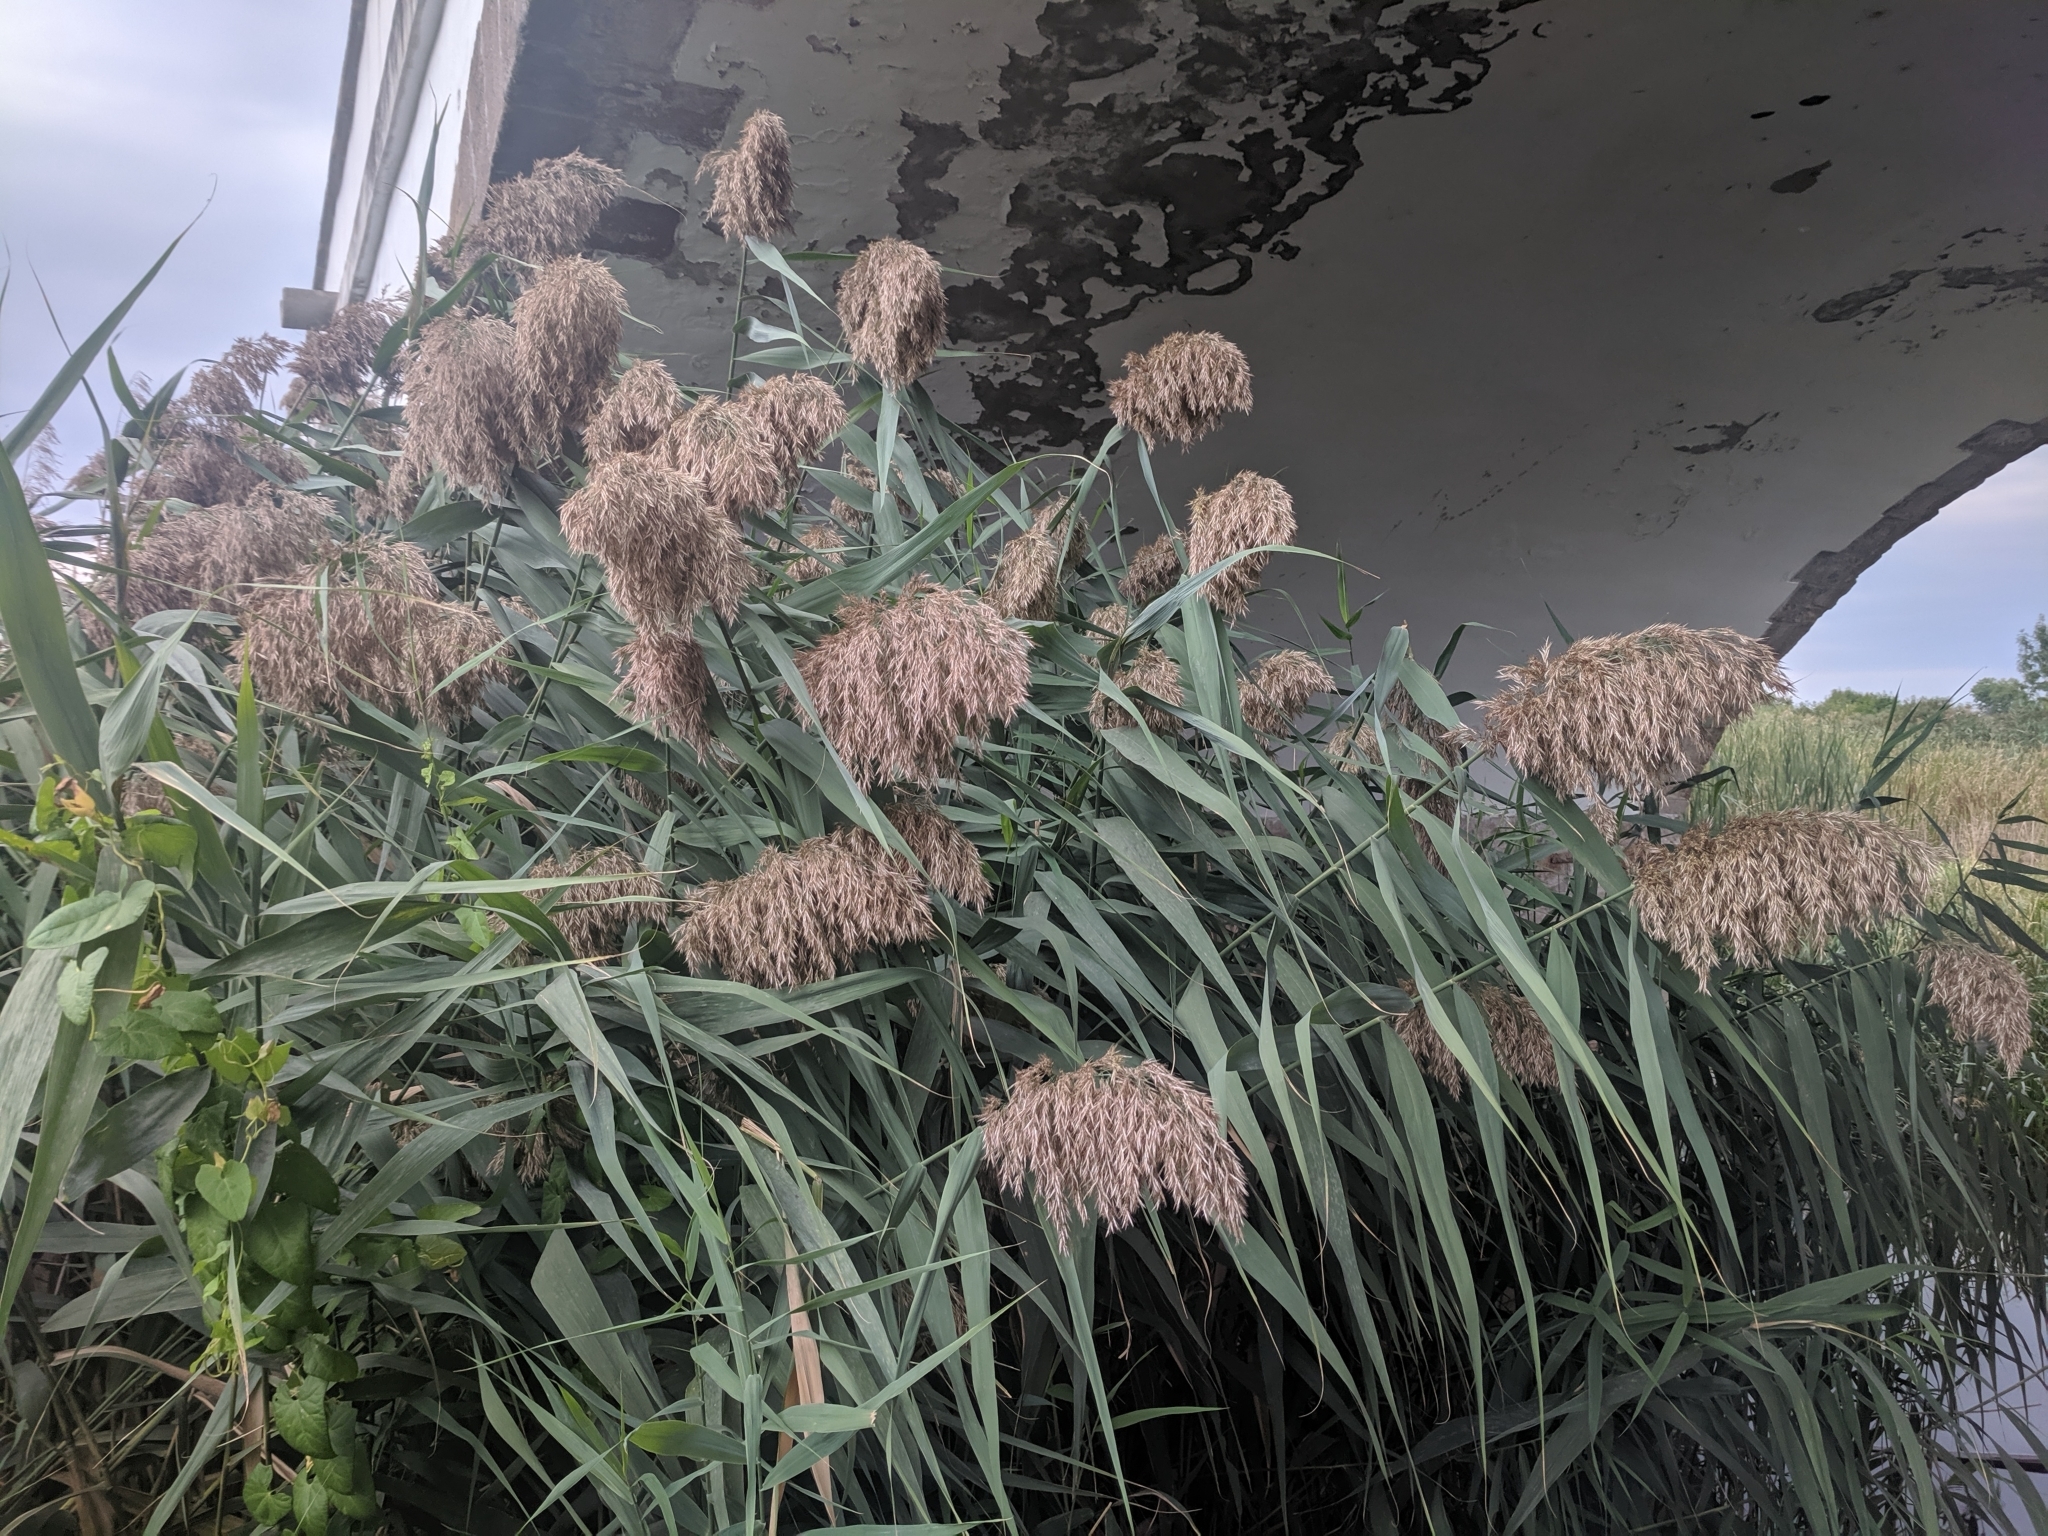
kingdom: Plantae
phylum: Tracheophyta
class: Liliopsida
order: Poales
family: Poaceae
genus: Phragmites
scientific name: Phragmites australis
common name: Common reed
